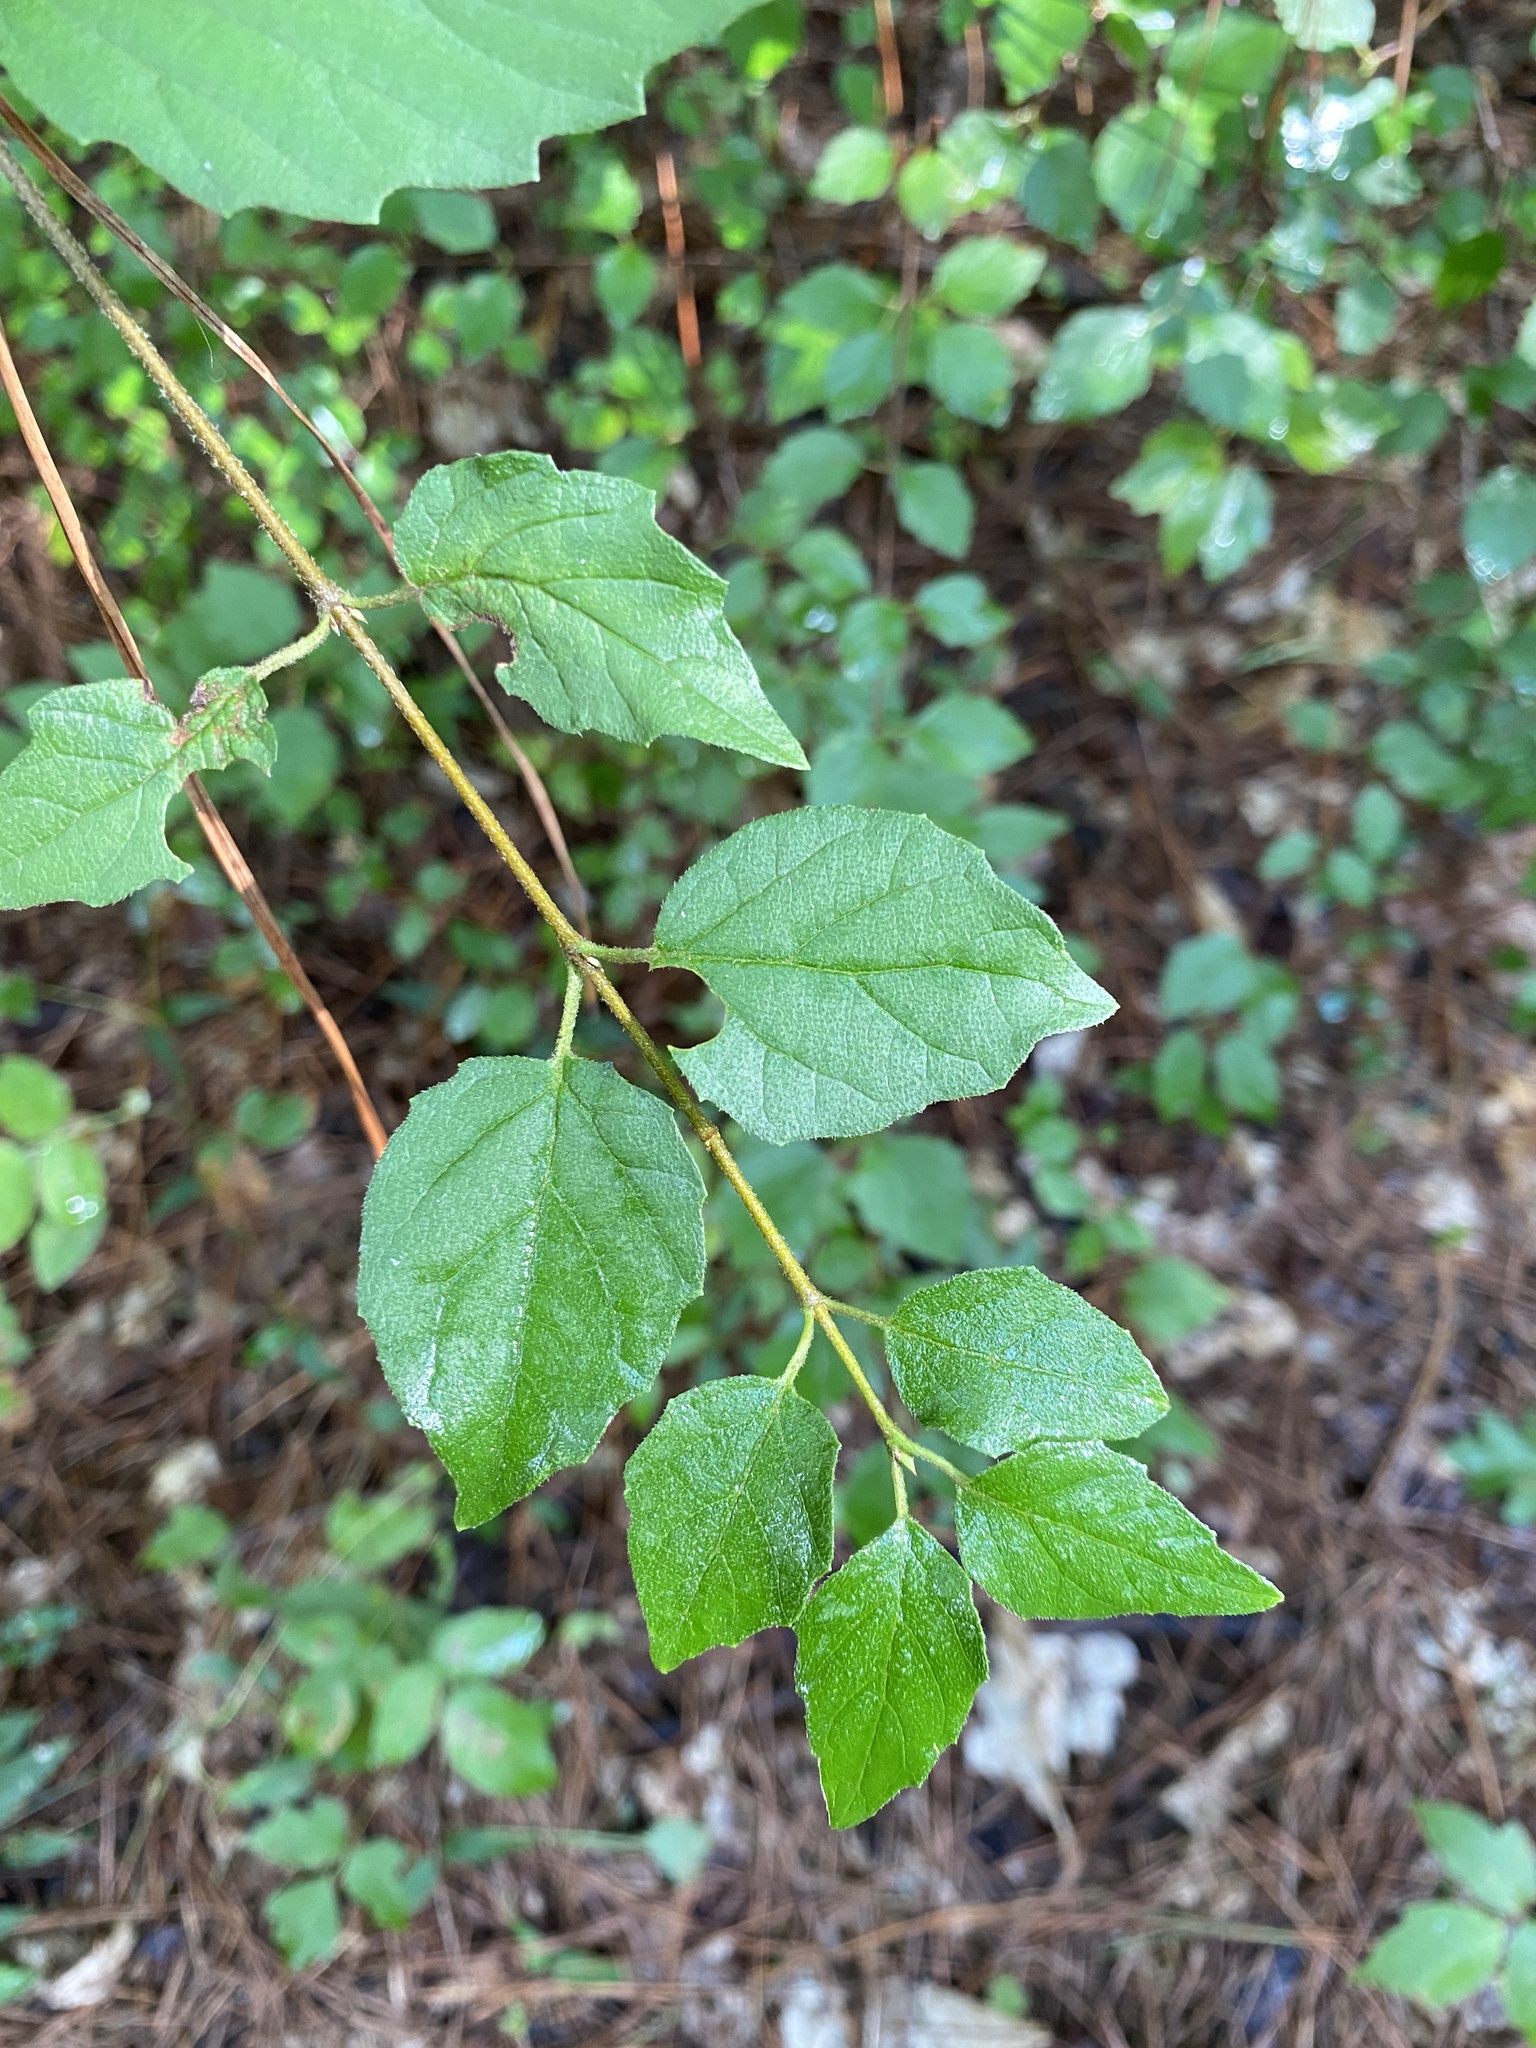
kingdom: Plantae
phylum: Tracheophyta
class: Magnoliopsida
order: Dipsacales
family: Viburnaceae
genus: Viburnum
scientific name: Viburnum scabrellum
